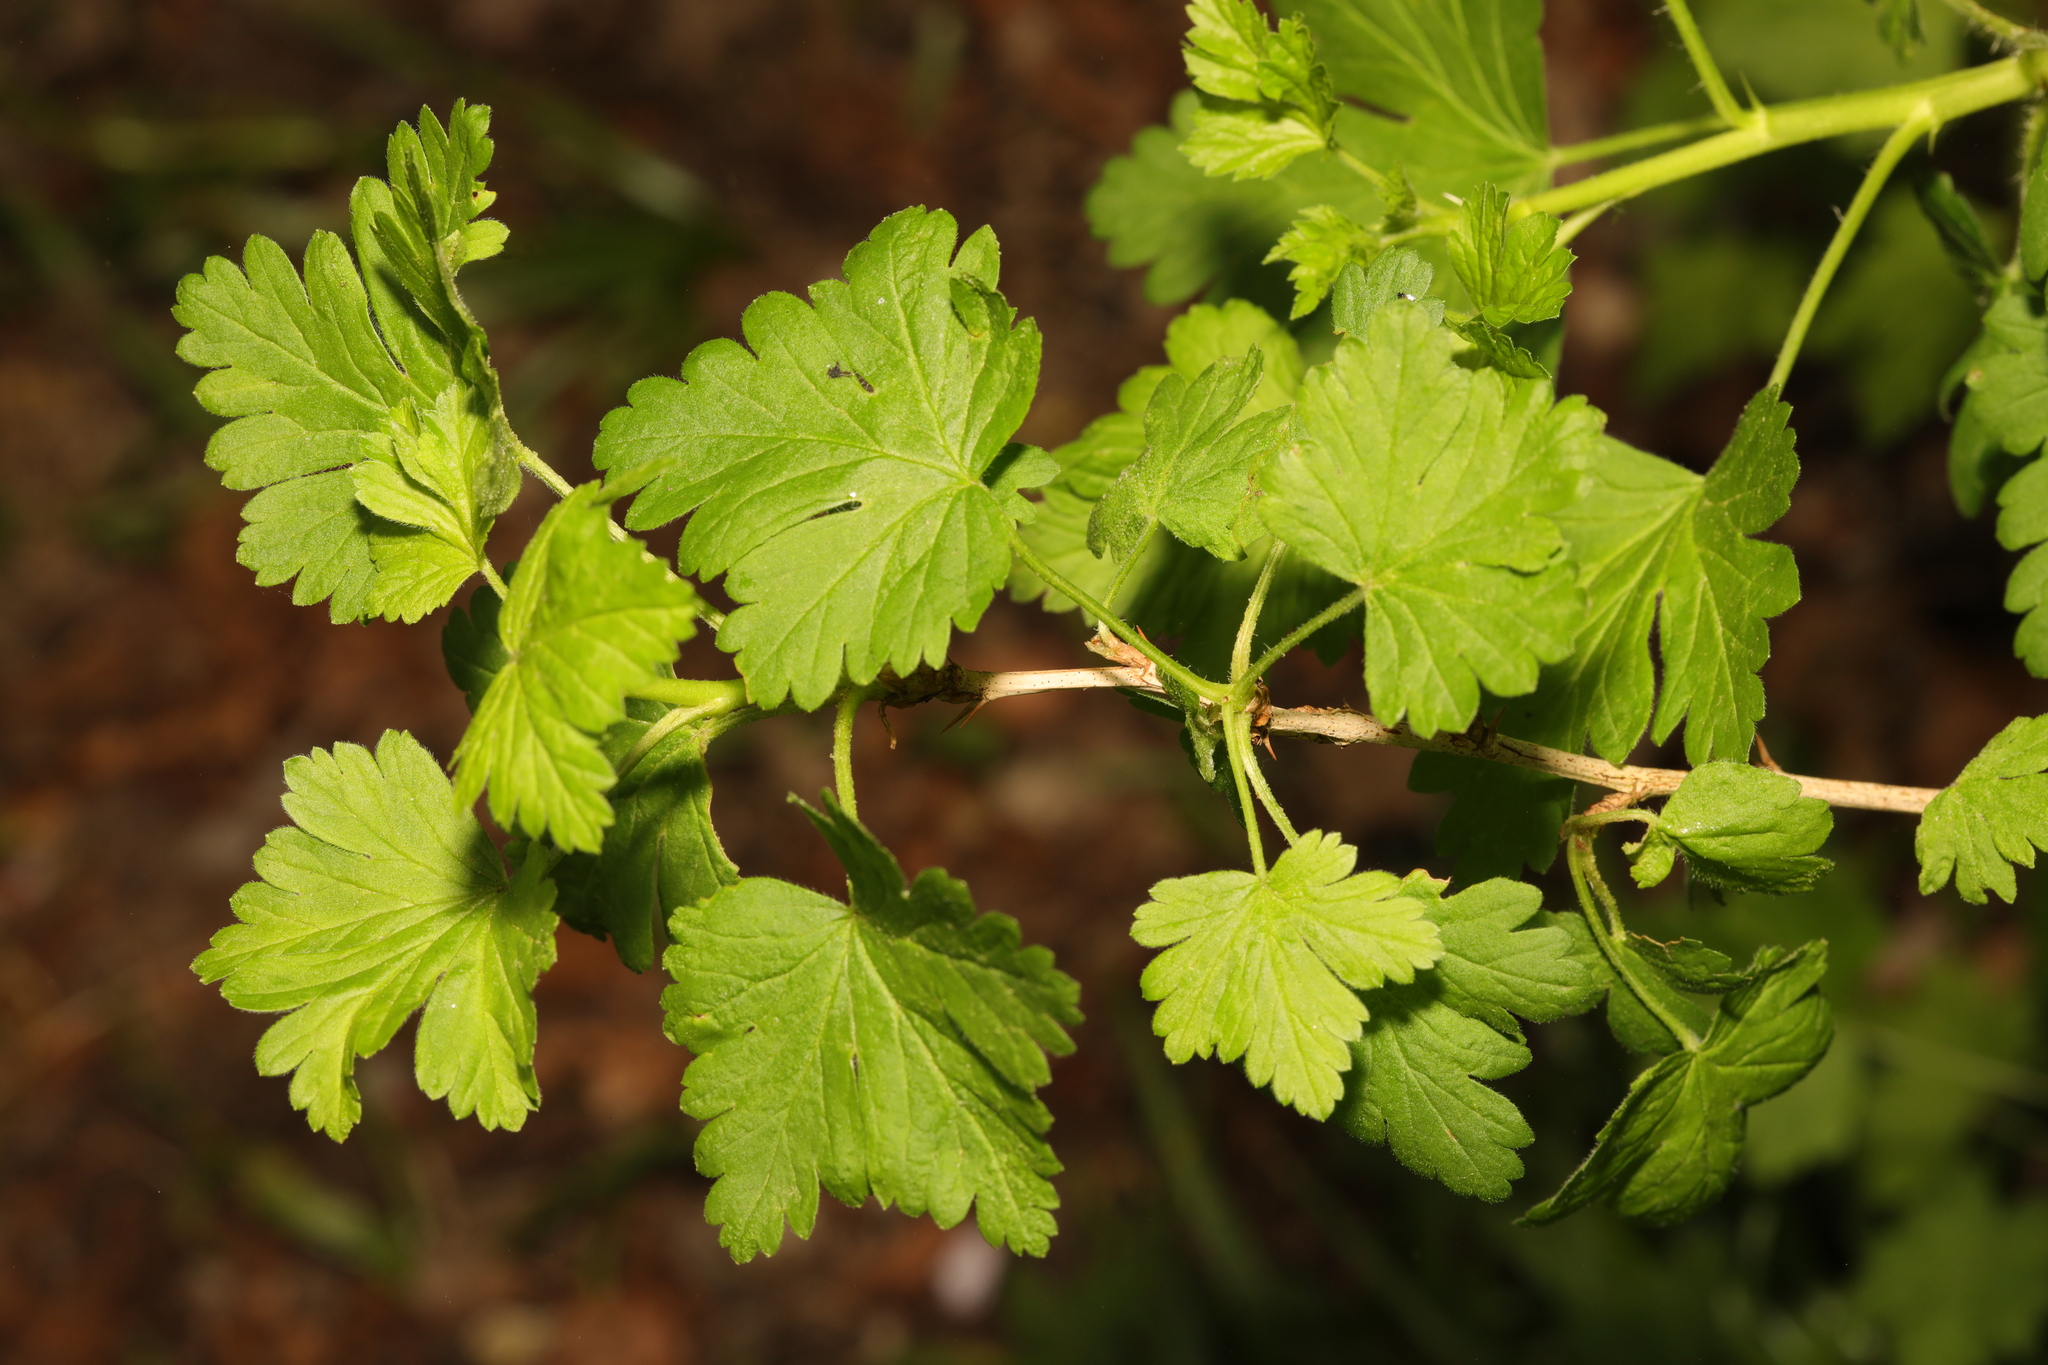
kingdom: Plantae
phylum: Tracheophyta
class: Magnoliopsida
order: Saxifragales
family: Grossulariaceae
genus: Ribes
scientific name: Ribes uva-crispa
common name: Gooseberry
